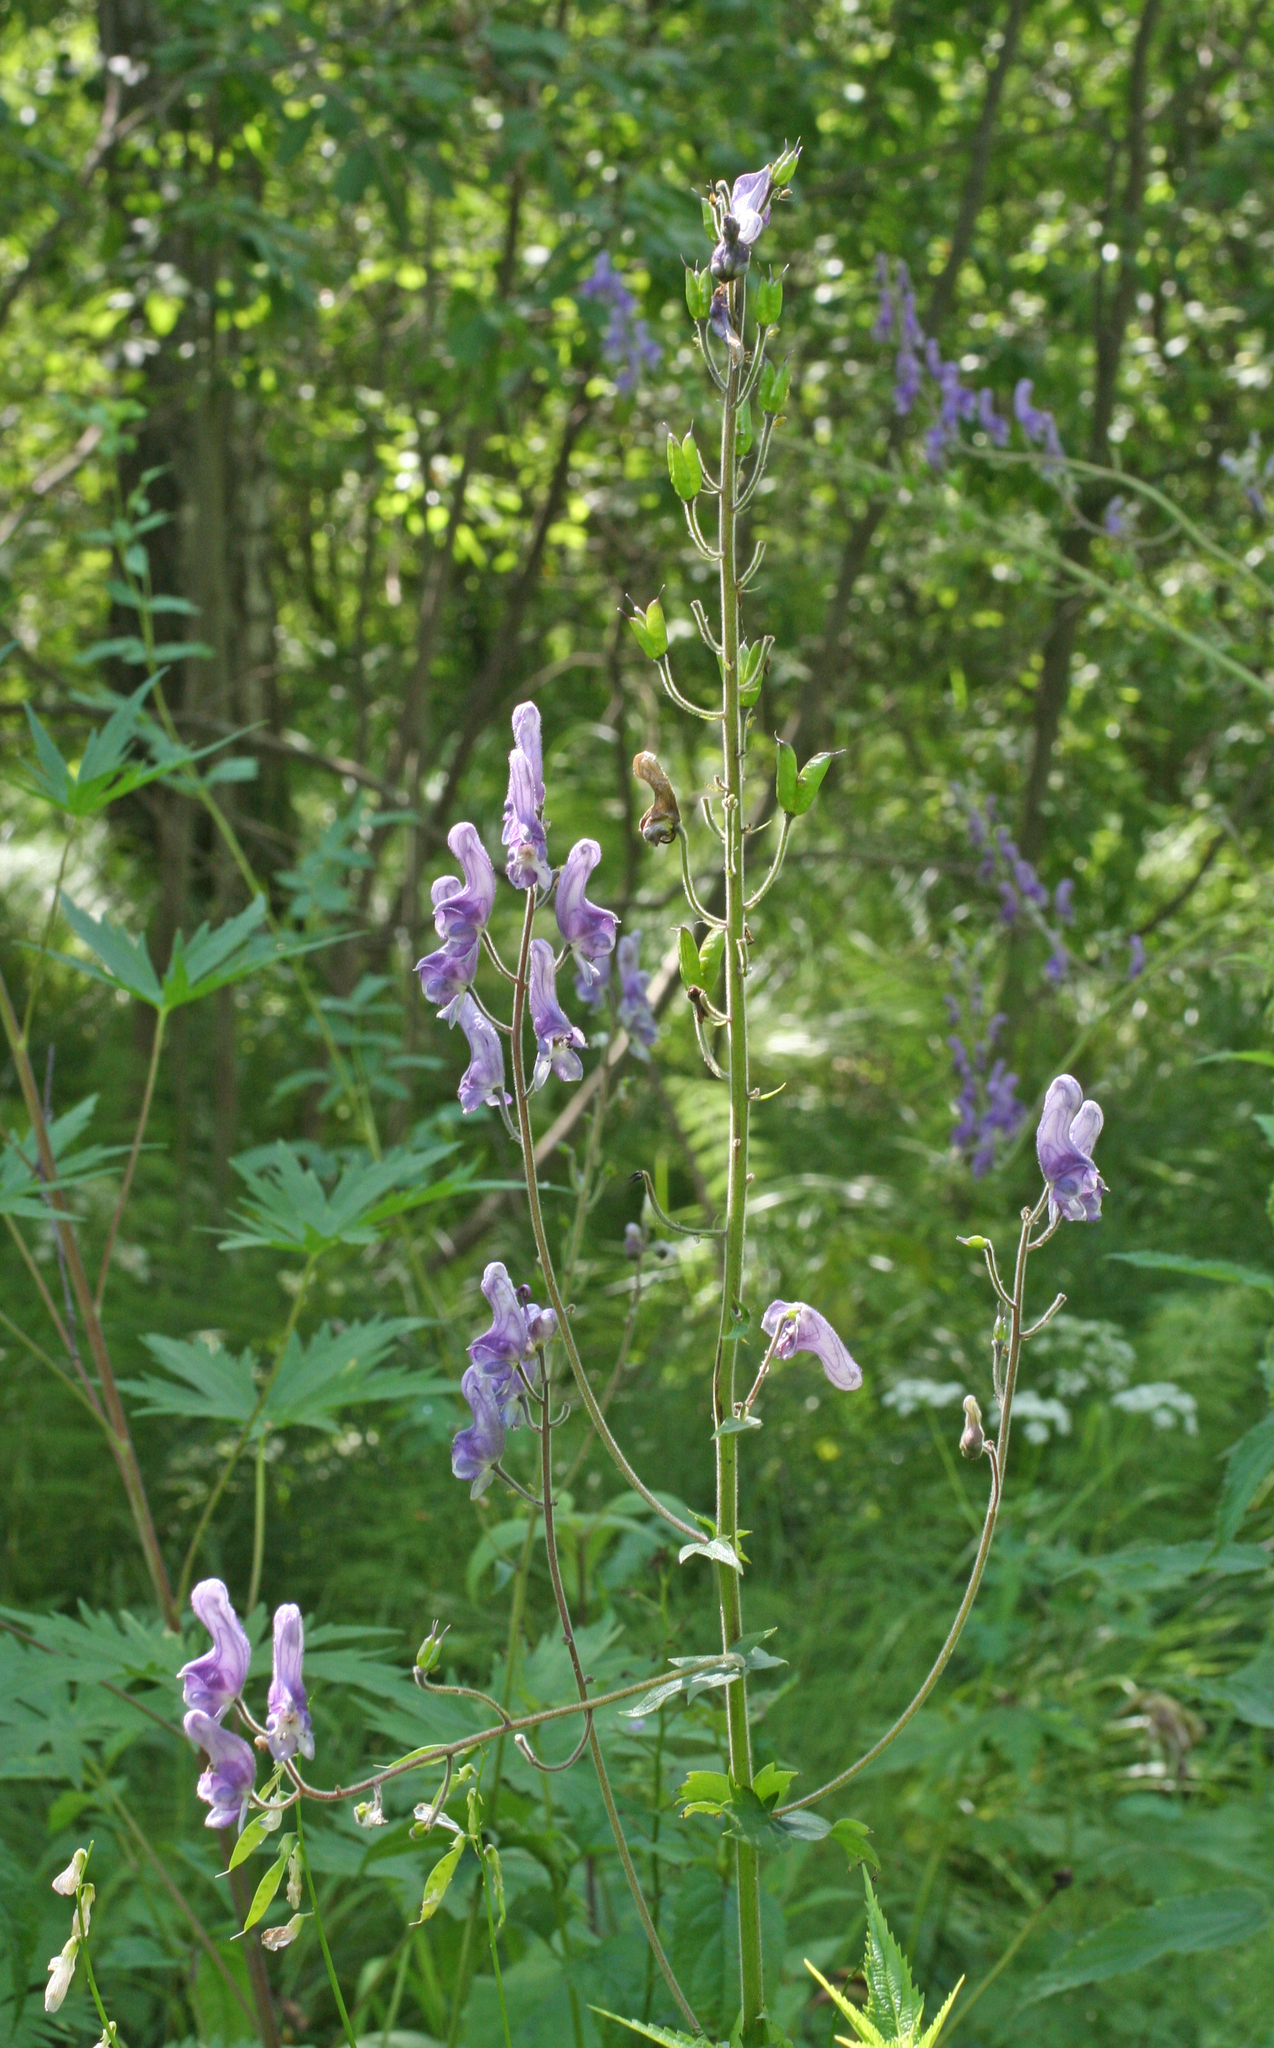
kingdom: Plantae
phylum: Tracheophyta
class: Magnoliopsida
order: Ranunculales
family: Ranunculaceae
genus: Aconitum
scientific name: Aconitum septentrionale
